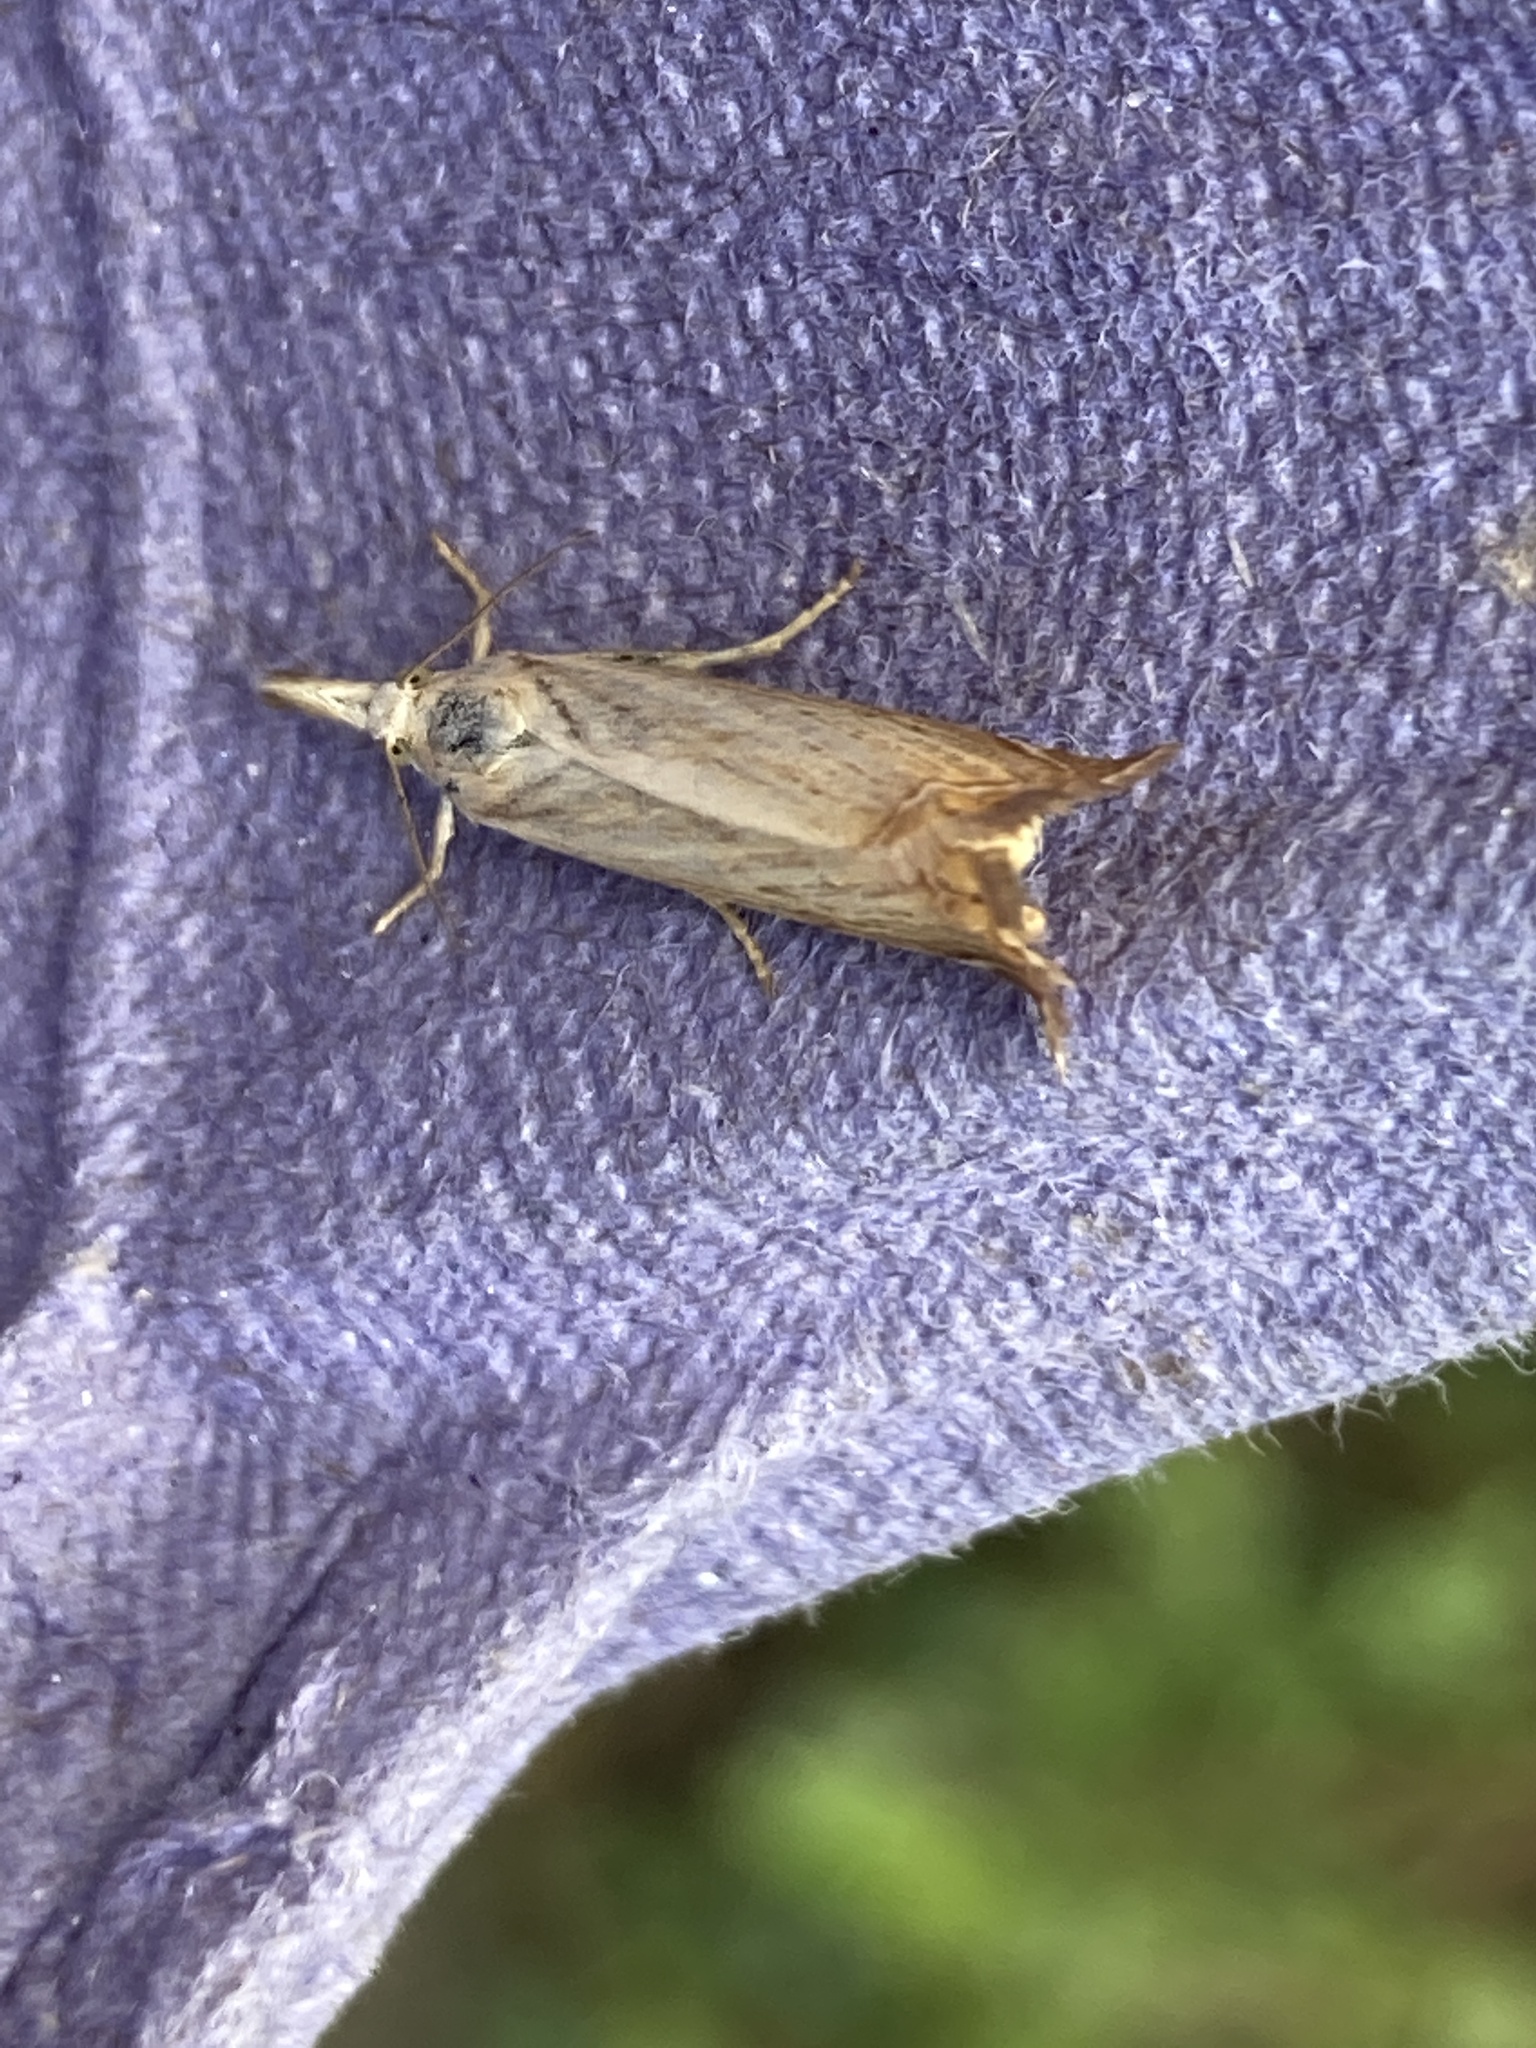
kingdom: Animalia
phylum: Arthropoda
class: Insecta
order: Lepidoptera
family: Crambidae
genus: Chrysoteuchia
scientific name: Chrysoteuchia culmella
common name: Garden grass-veneer
